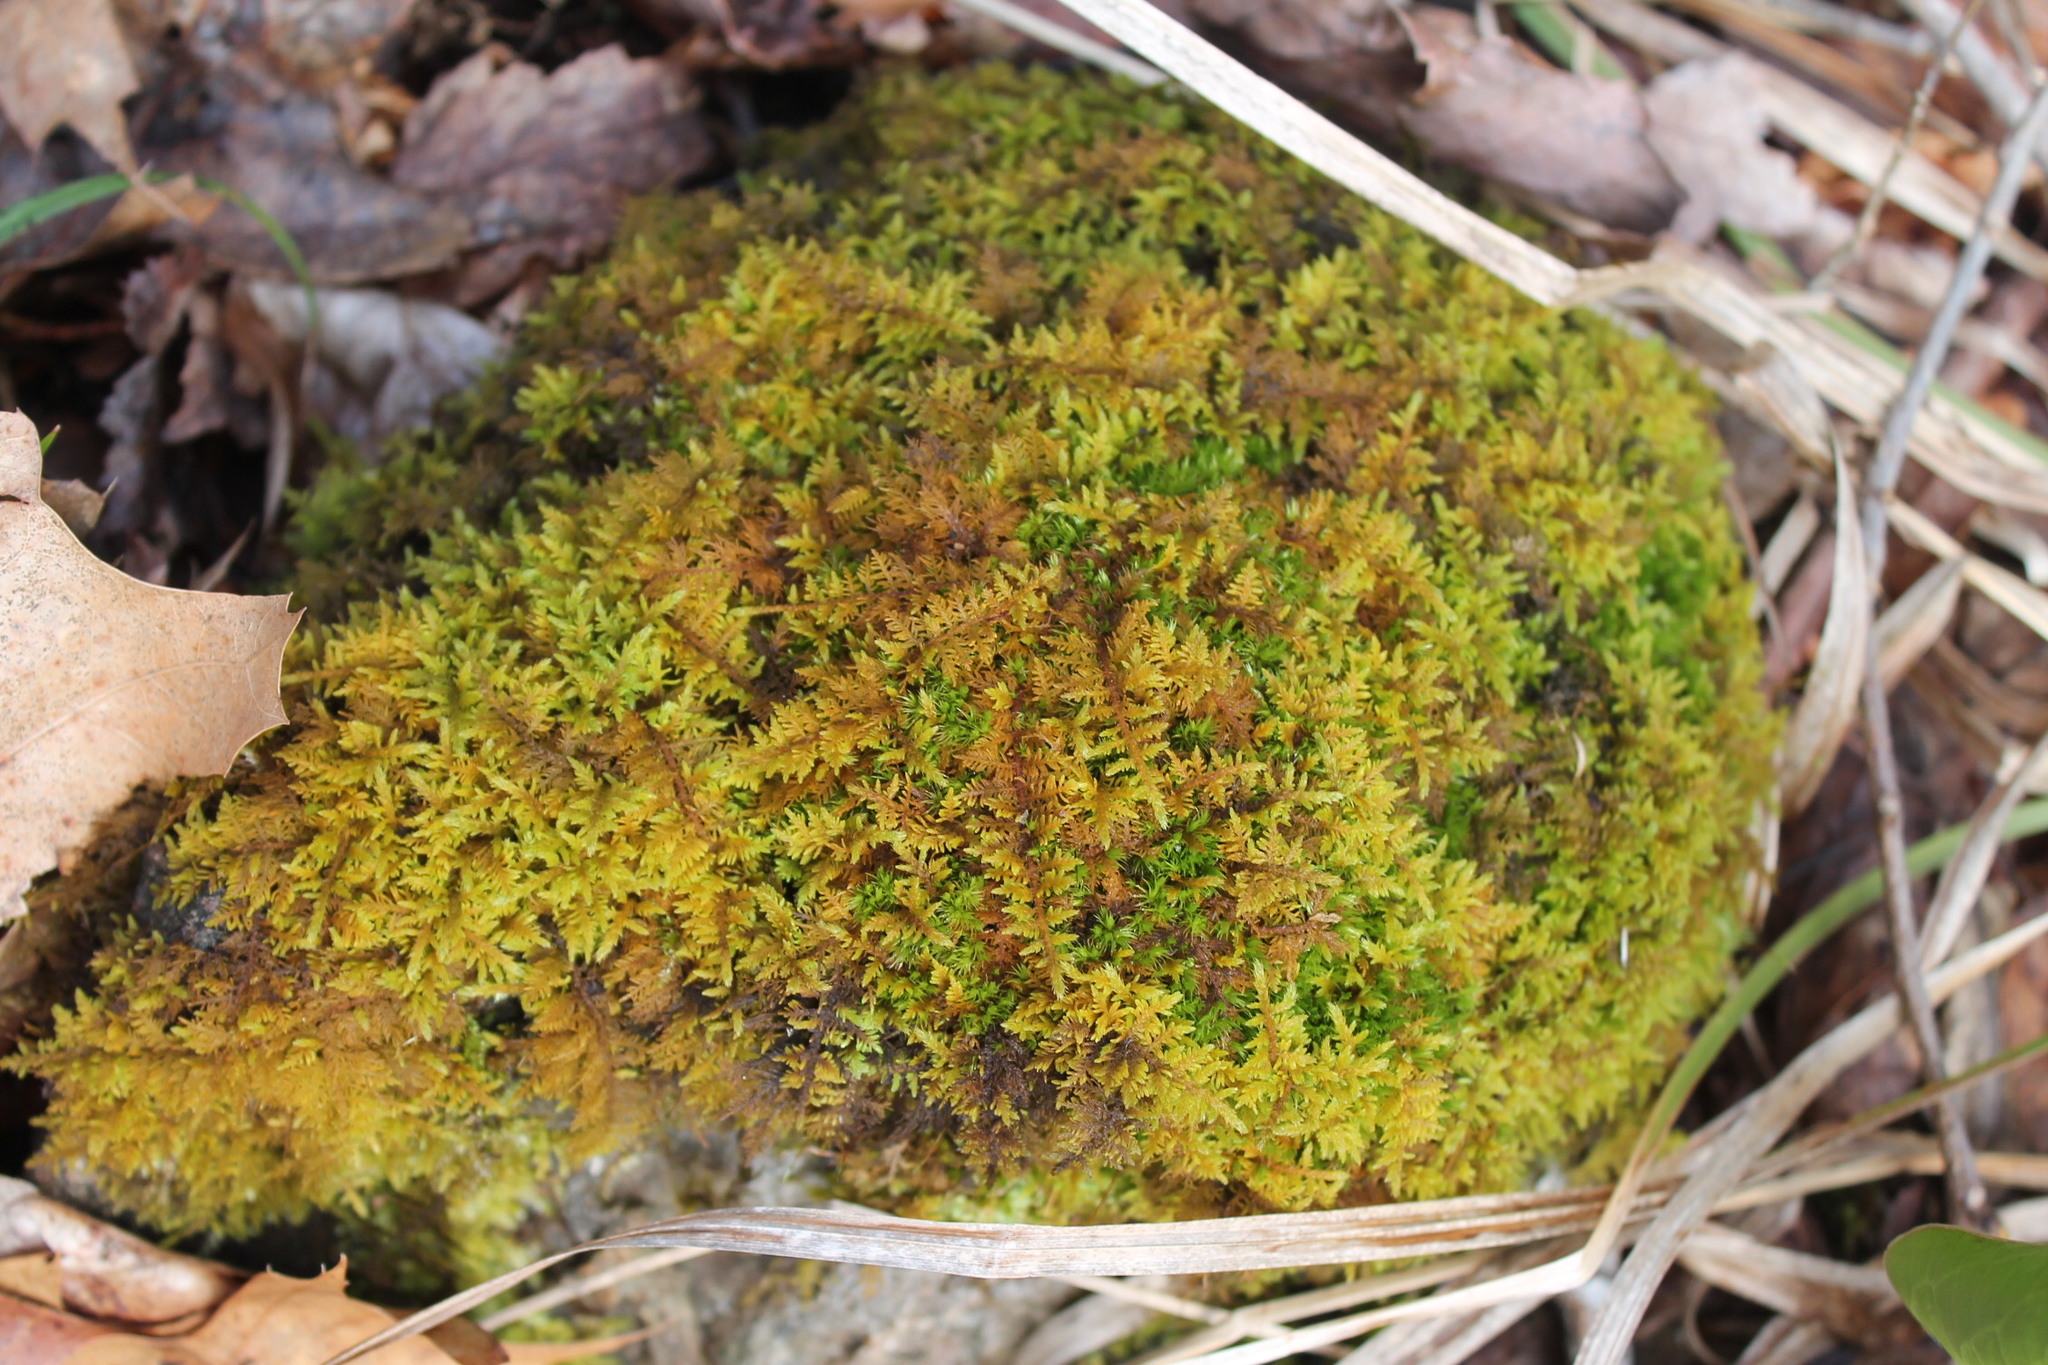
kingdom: Plantae
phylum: Bryophyta
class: Bryopsida
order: Hypnales
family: Thuidiaceae
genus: Thuidium
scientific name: Thuidium delicatulum
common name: Delicate fern moss
